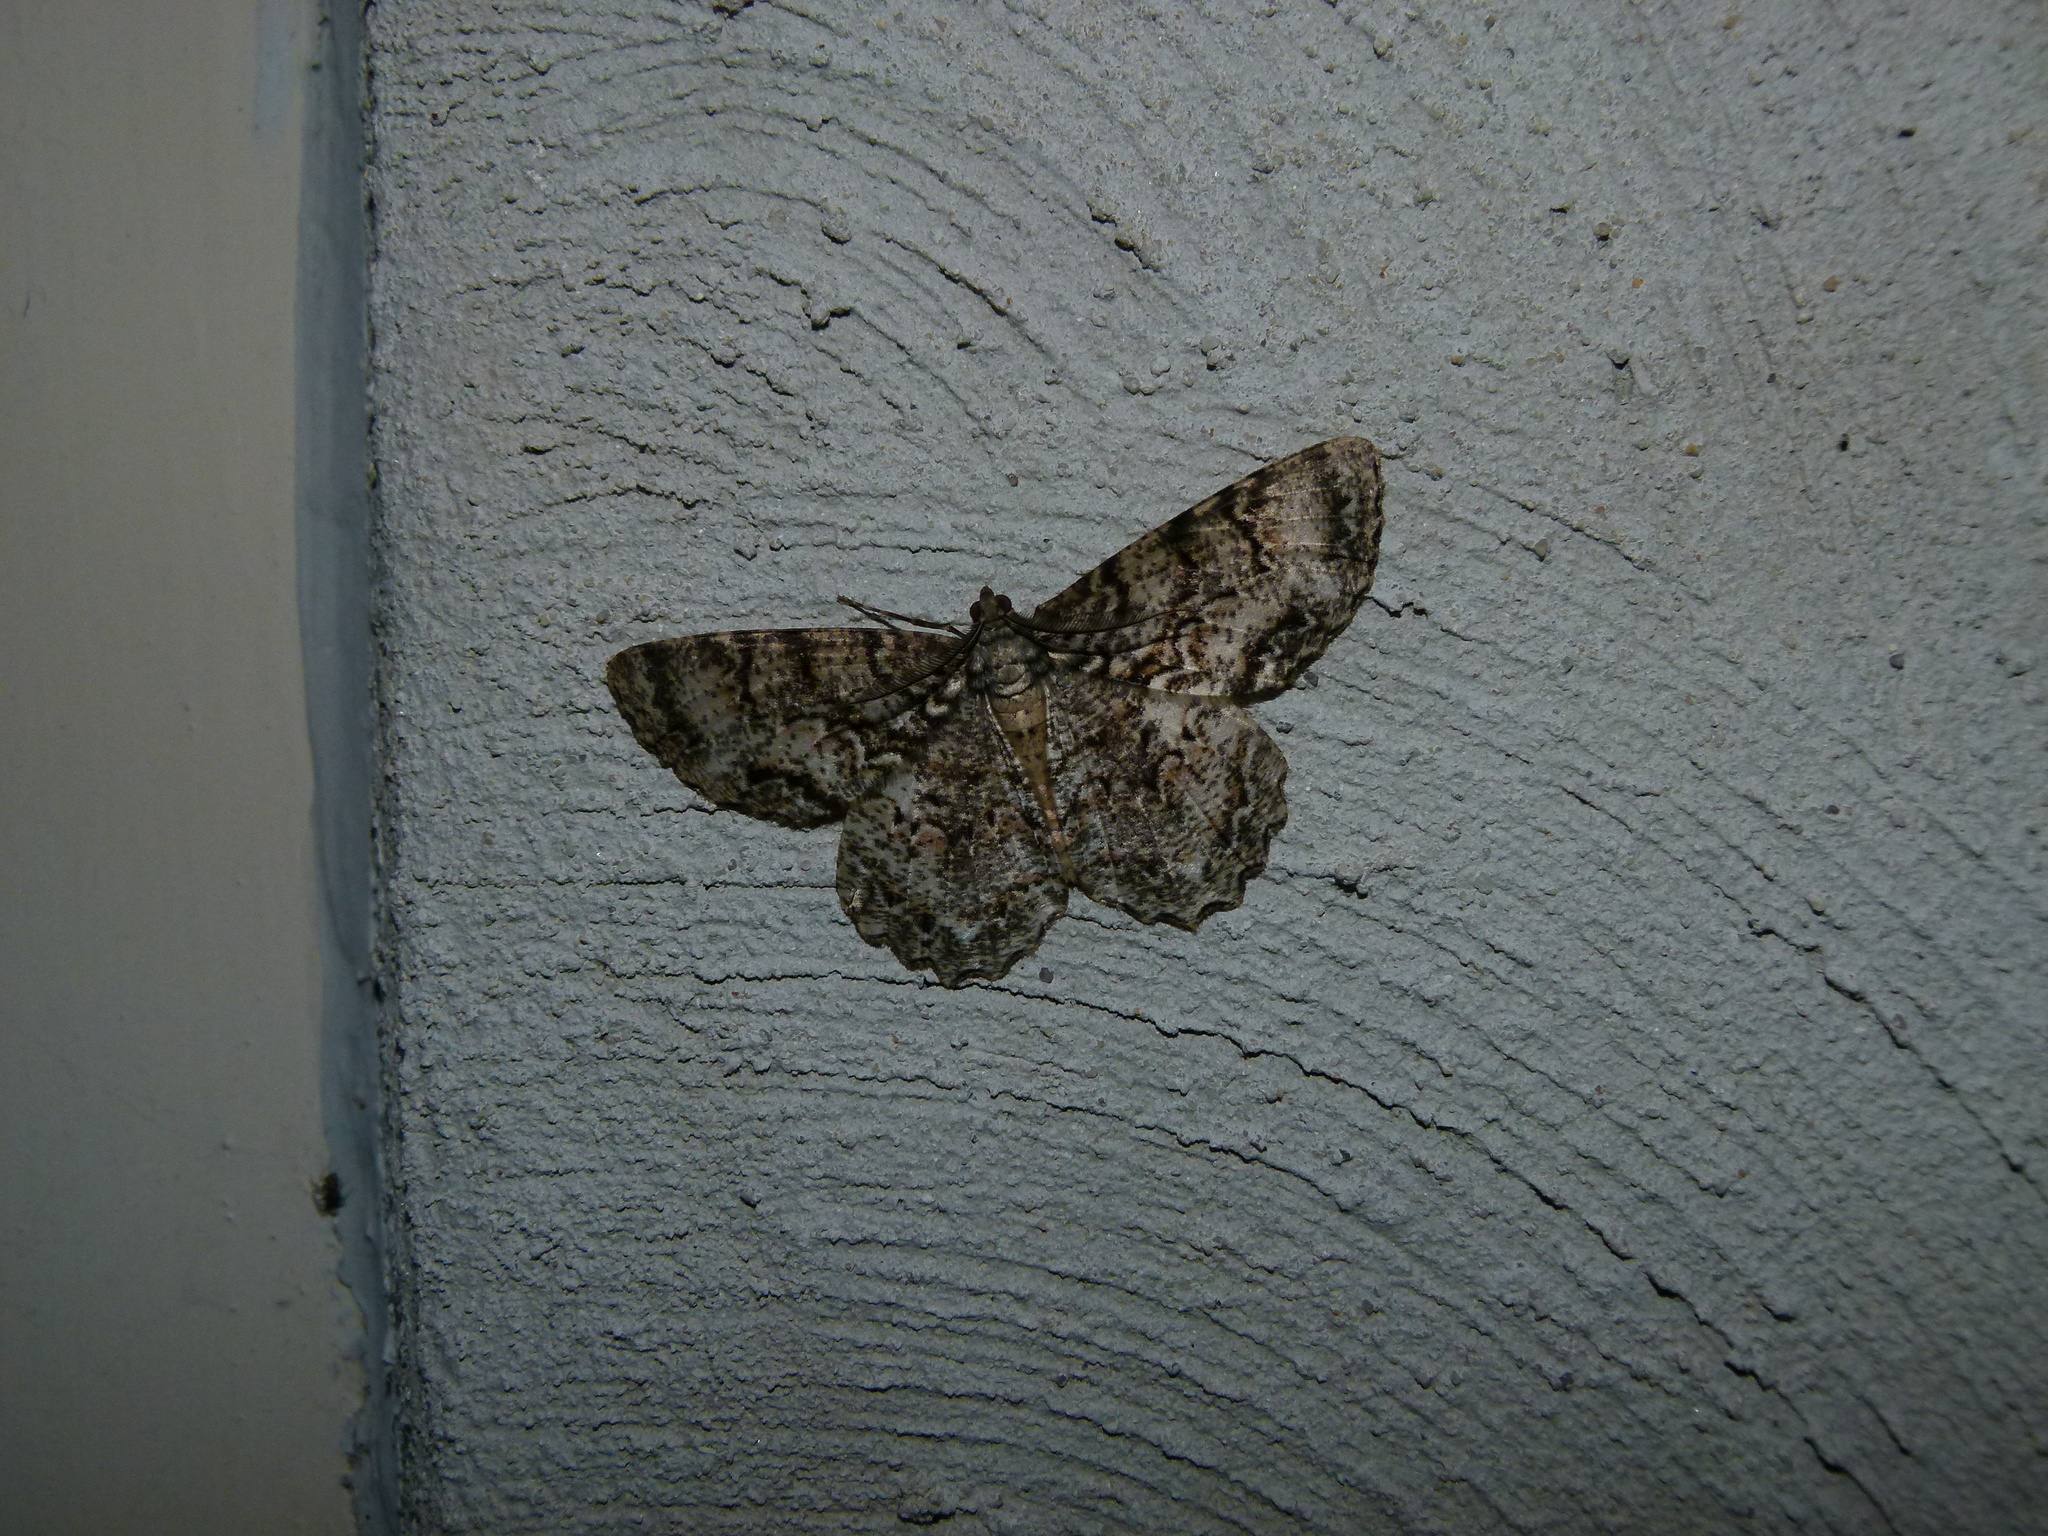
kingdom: Animalia
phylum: Arthropoda
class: Insecta
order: Lepidoptera
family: Geometridae
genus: Epimecis
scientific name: Epimecis hortaria
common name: Tulip-tree beauty
